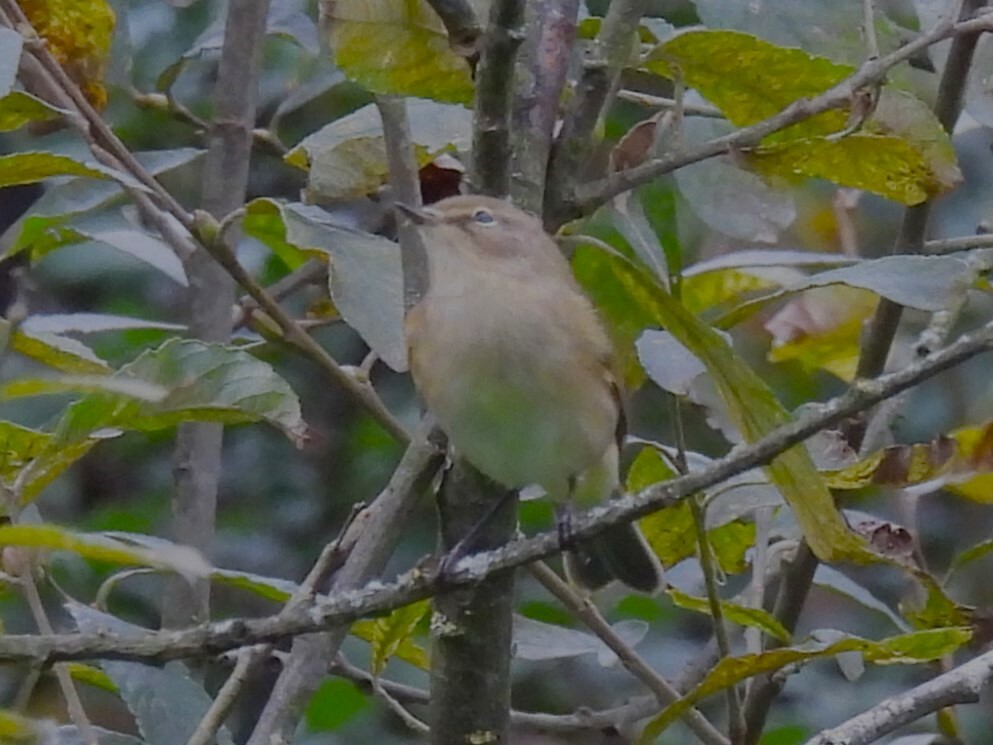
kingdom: Animalia
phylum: Chordata
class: Aves
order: Passeriformes
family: Phylloscopidae
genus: Phylloscopus
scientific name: Phylloscopus collybita
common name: Common chiffchaff
